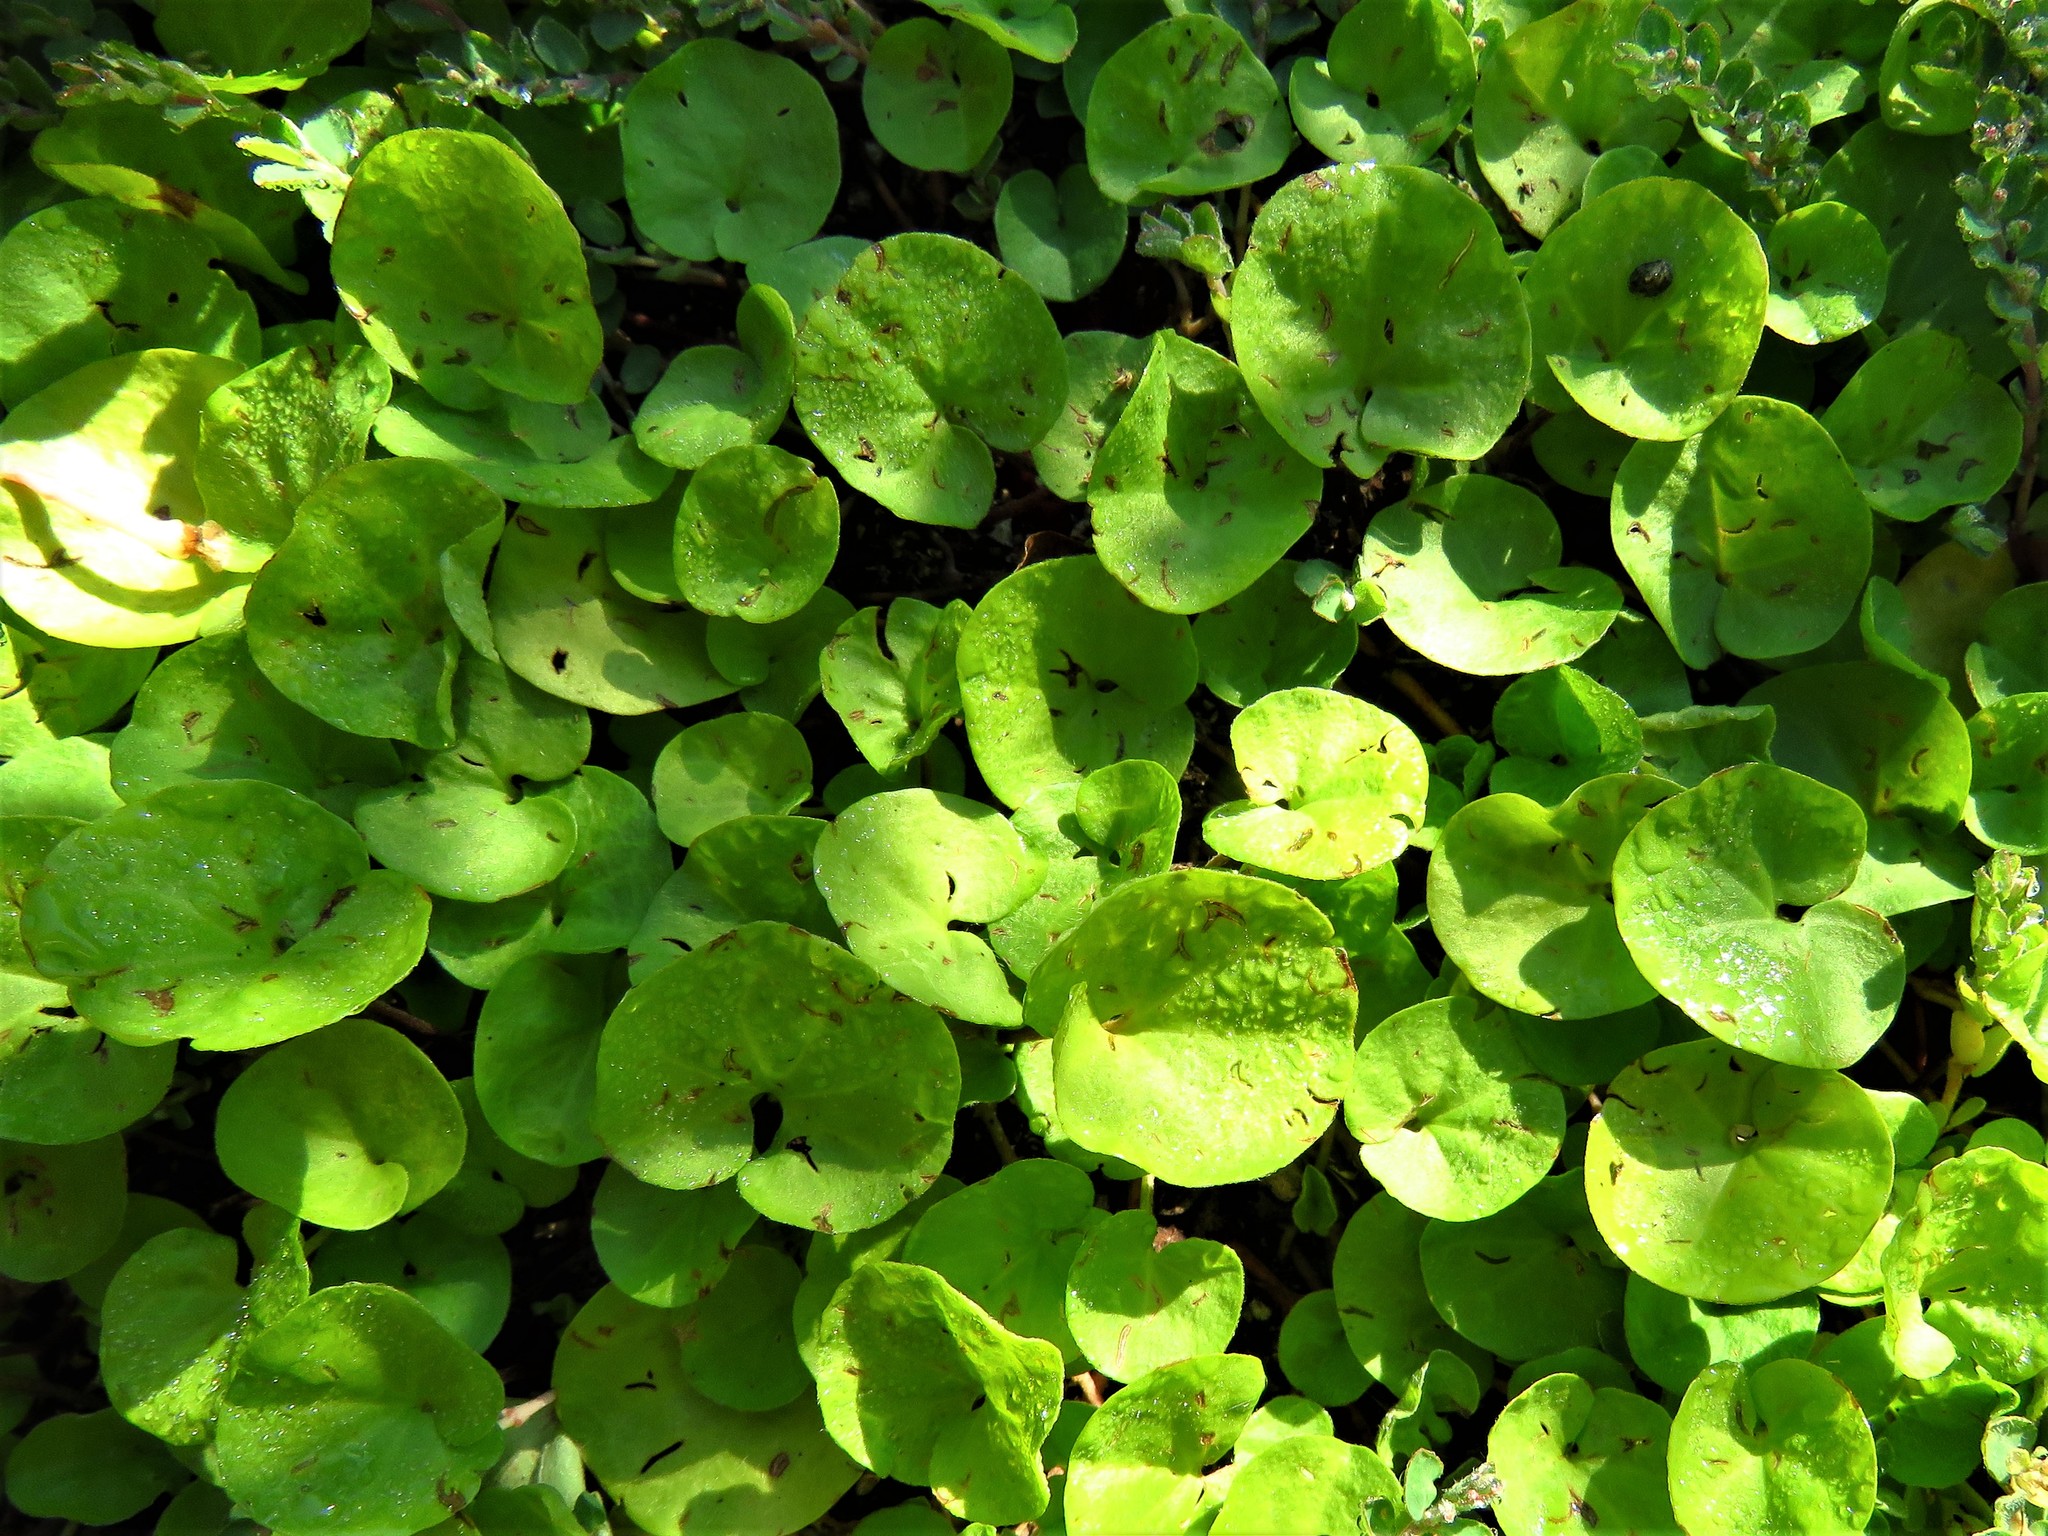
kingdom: Plantae
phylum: Tracheophyta
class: Magnoliopsida
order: Solanales
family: Convolvulaceae
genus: Dichondra
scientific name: Dichondra carolinensis
